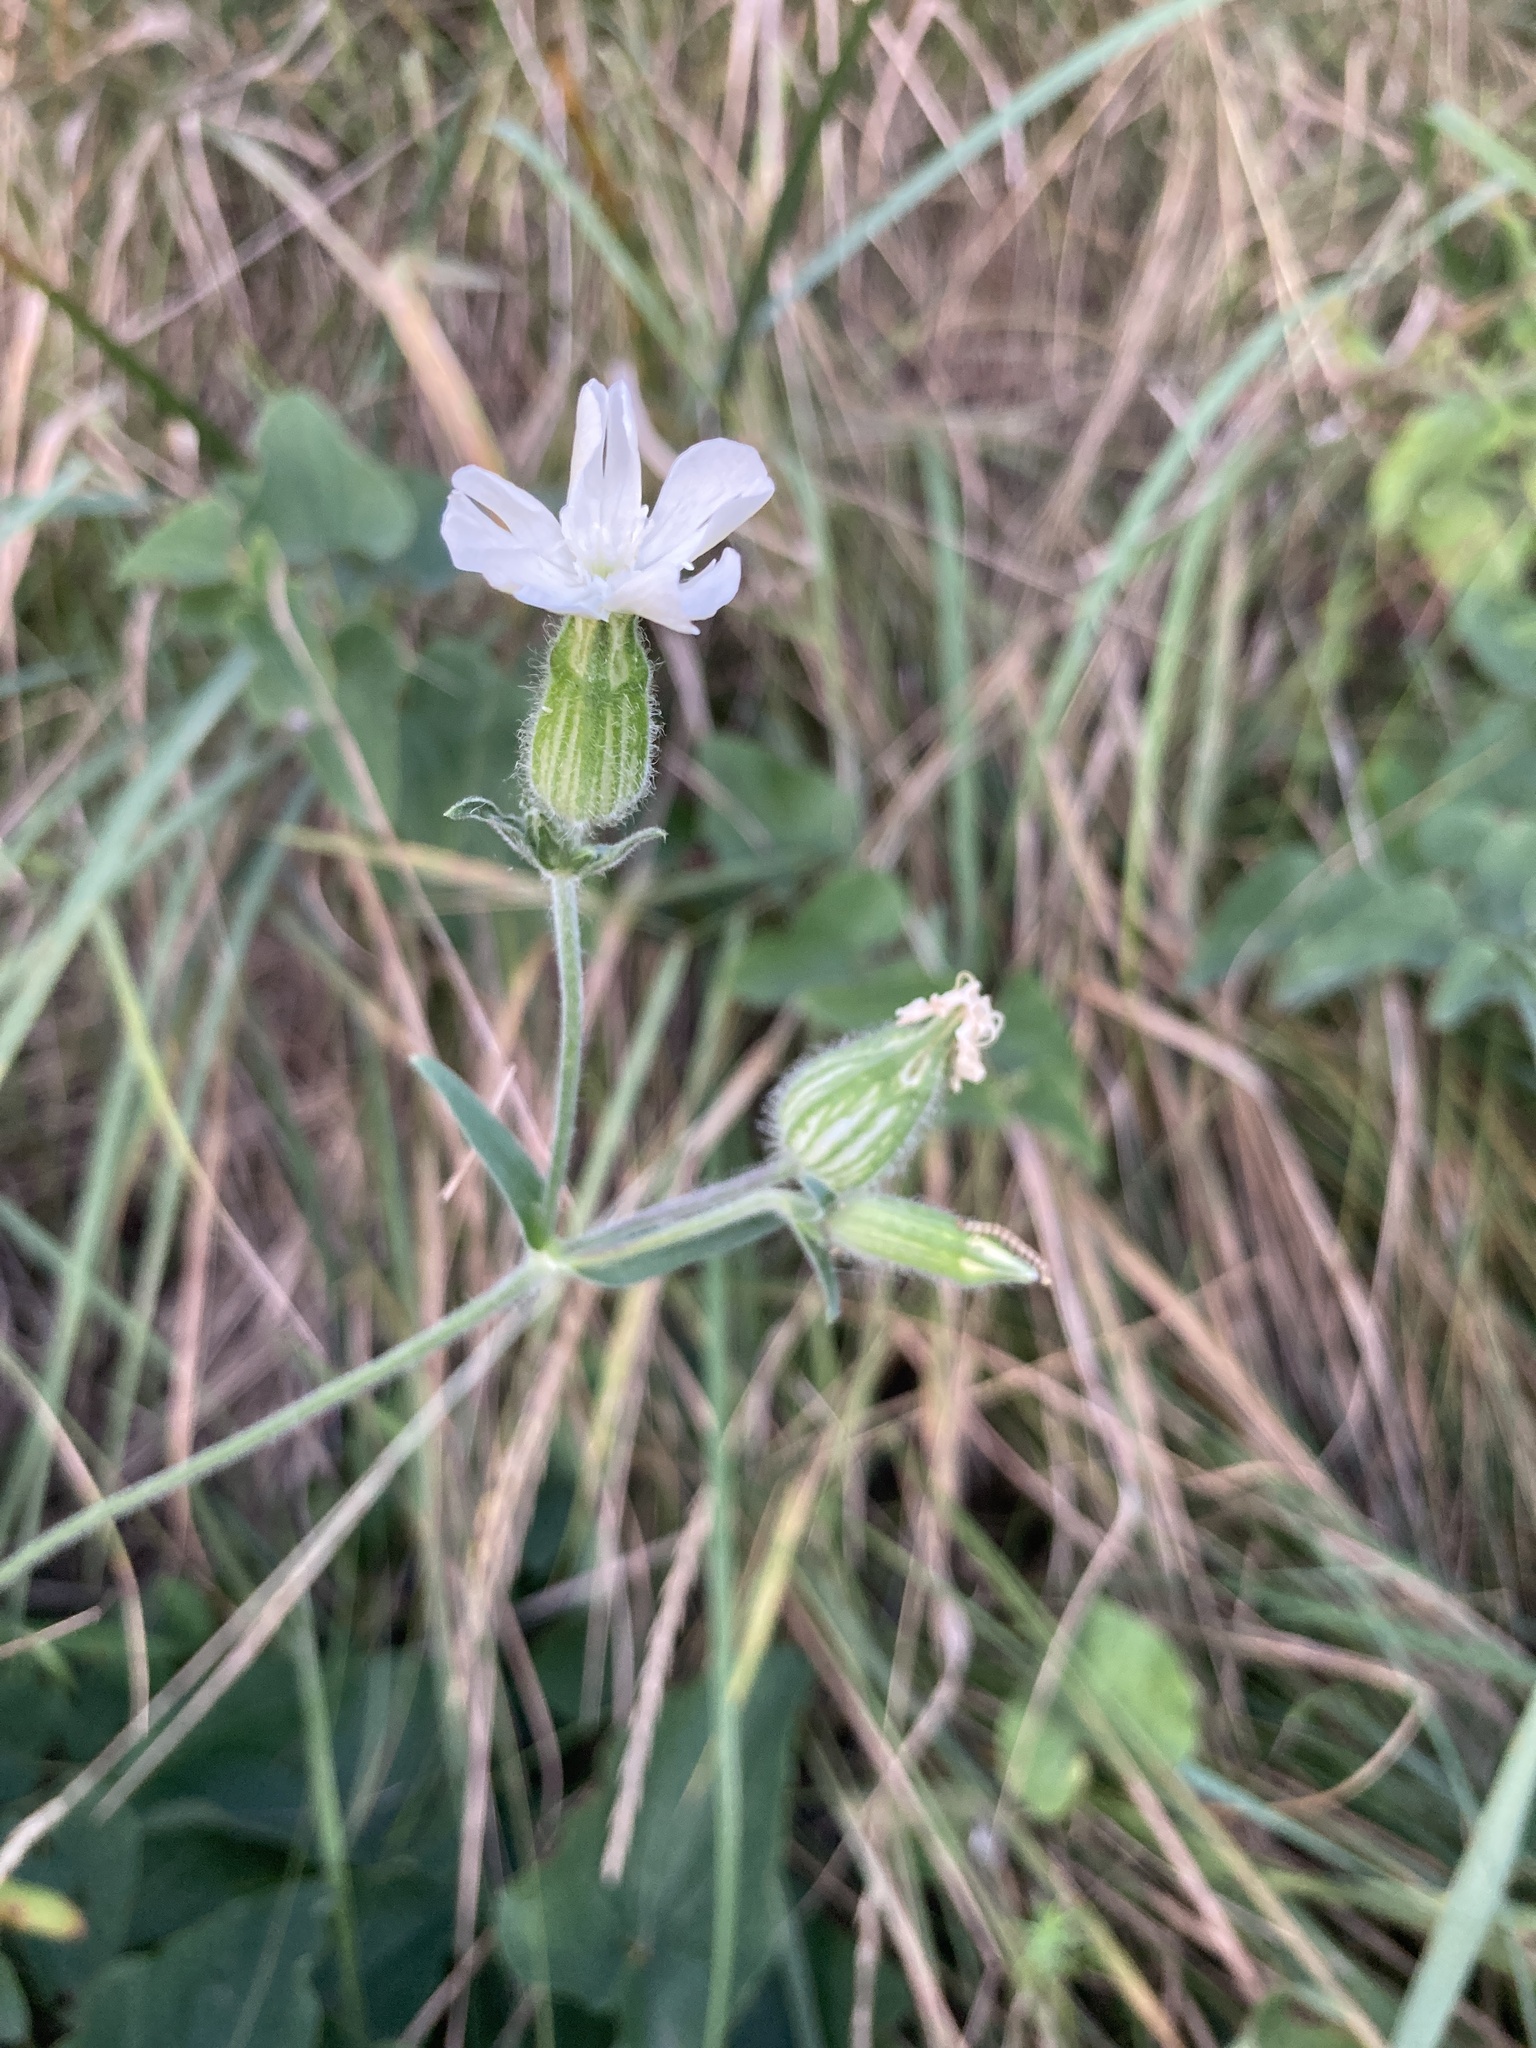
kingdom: Plantae
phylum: Tracheophyta
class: Magnoliopsida
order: Caryophyllales
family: Caryophyllaceae
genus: Silene
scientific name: Silene latifolia
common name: White campion
